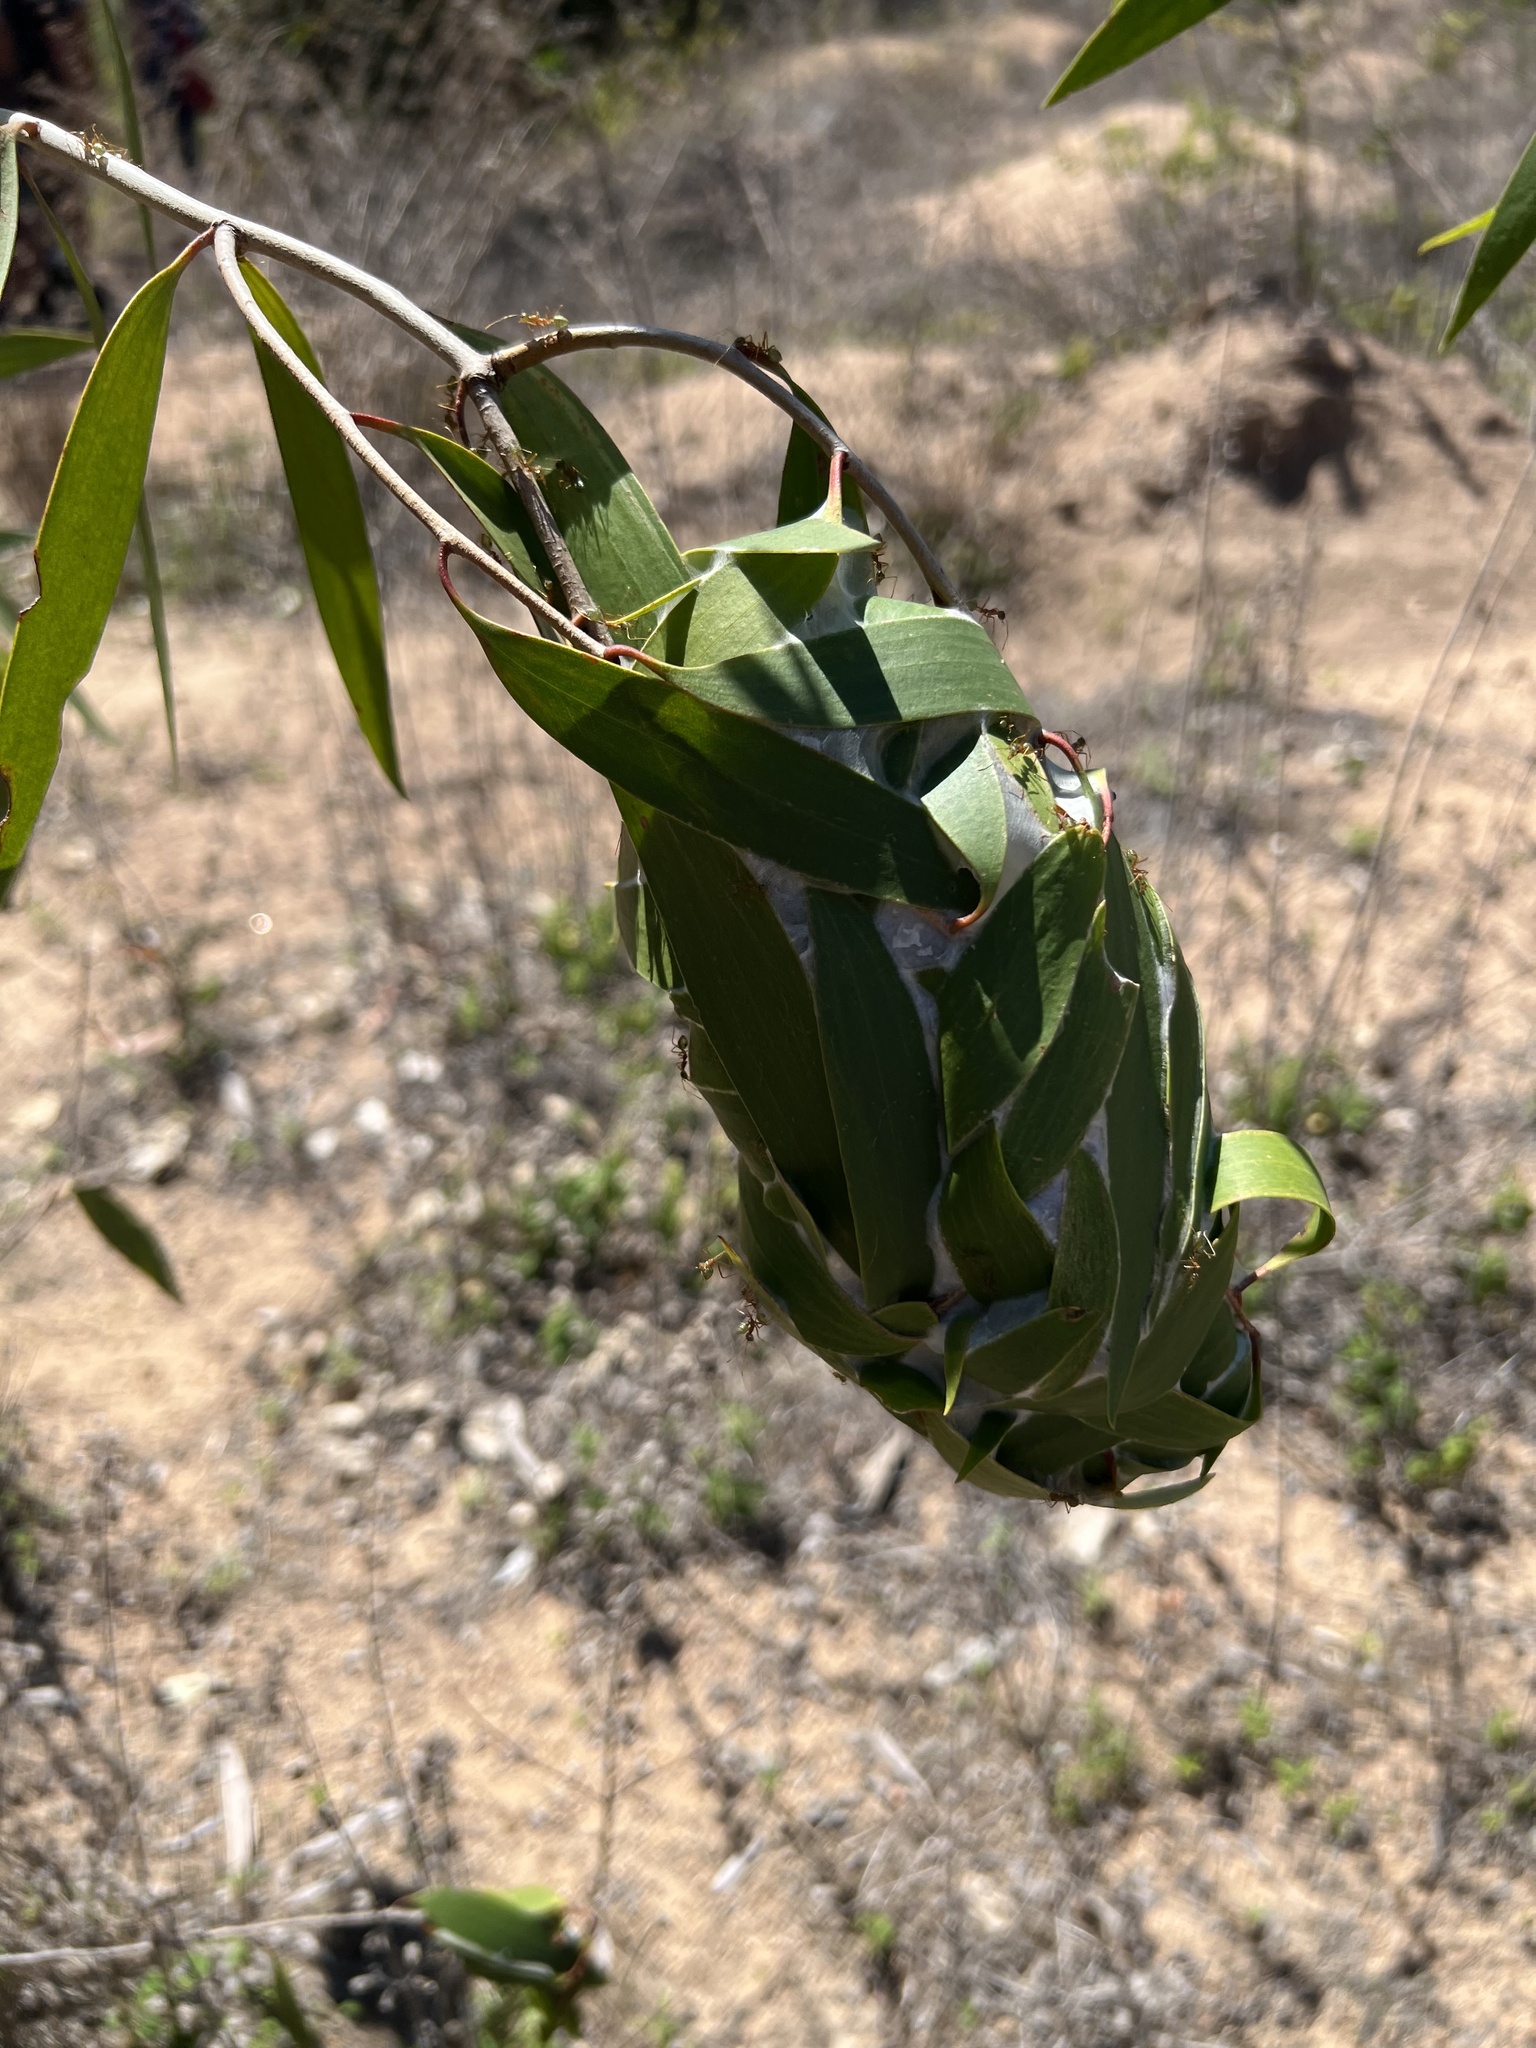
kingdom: Animalia
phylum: Arthropoda
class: Insecta
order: Hymenoptera
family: Formicidae
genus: Oecophylla
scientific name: Oecophylla smaragdina
